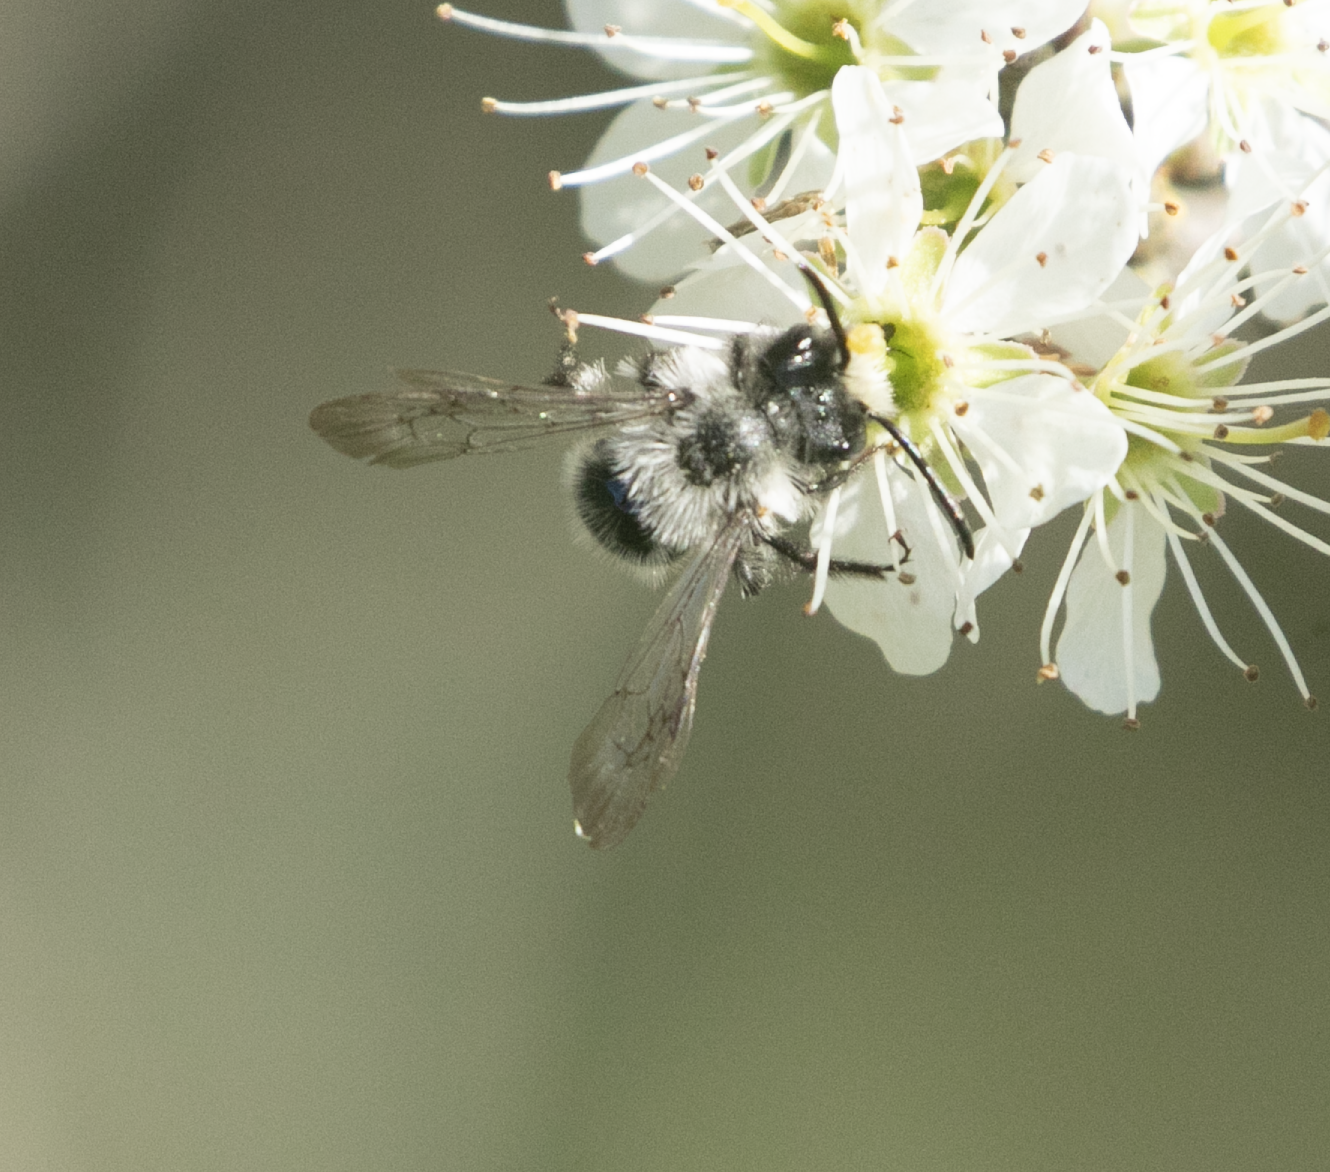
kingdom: Animalia
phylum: Arthropoda
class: Insecta
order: Hymenoptera
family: Andrenidae
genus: Andrena
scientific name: Andrena cineraria
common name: Ashy mining bee
